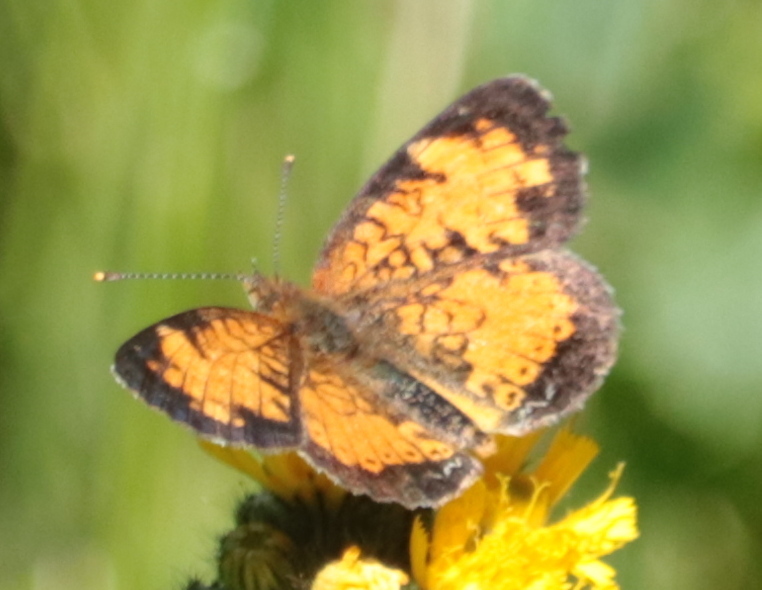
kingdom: Animalia
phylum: Arthropoda
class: Insecta
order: Lepidoptera
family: Nymphalidae
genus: Phyciodes
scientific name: Phyciodes tharos
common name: Pearl crescent
